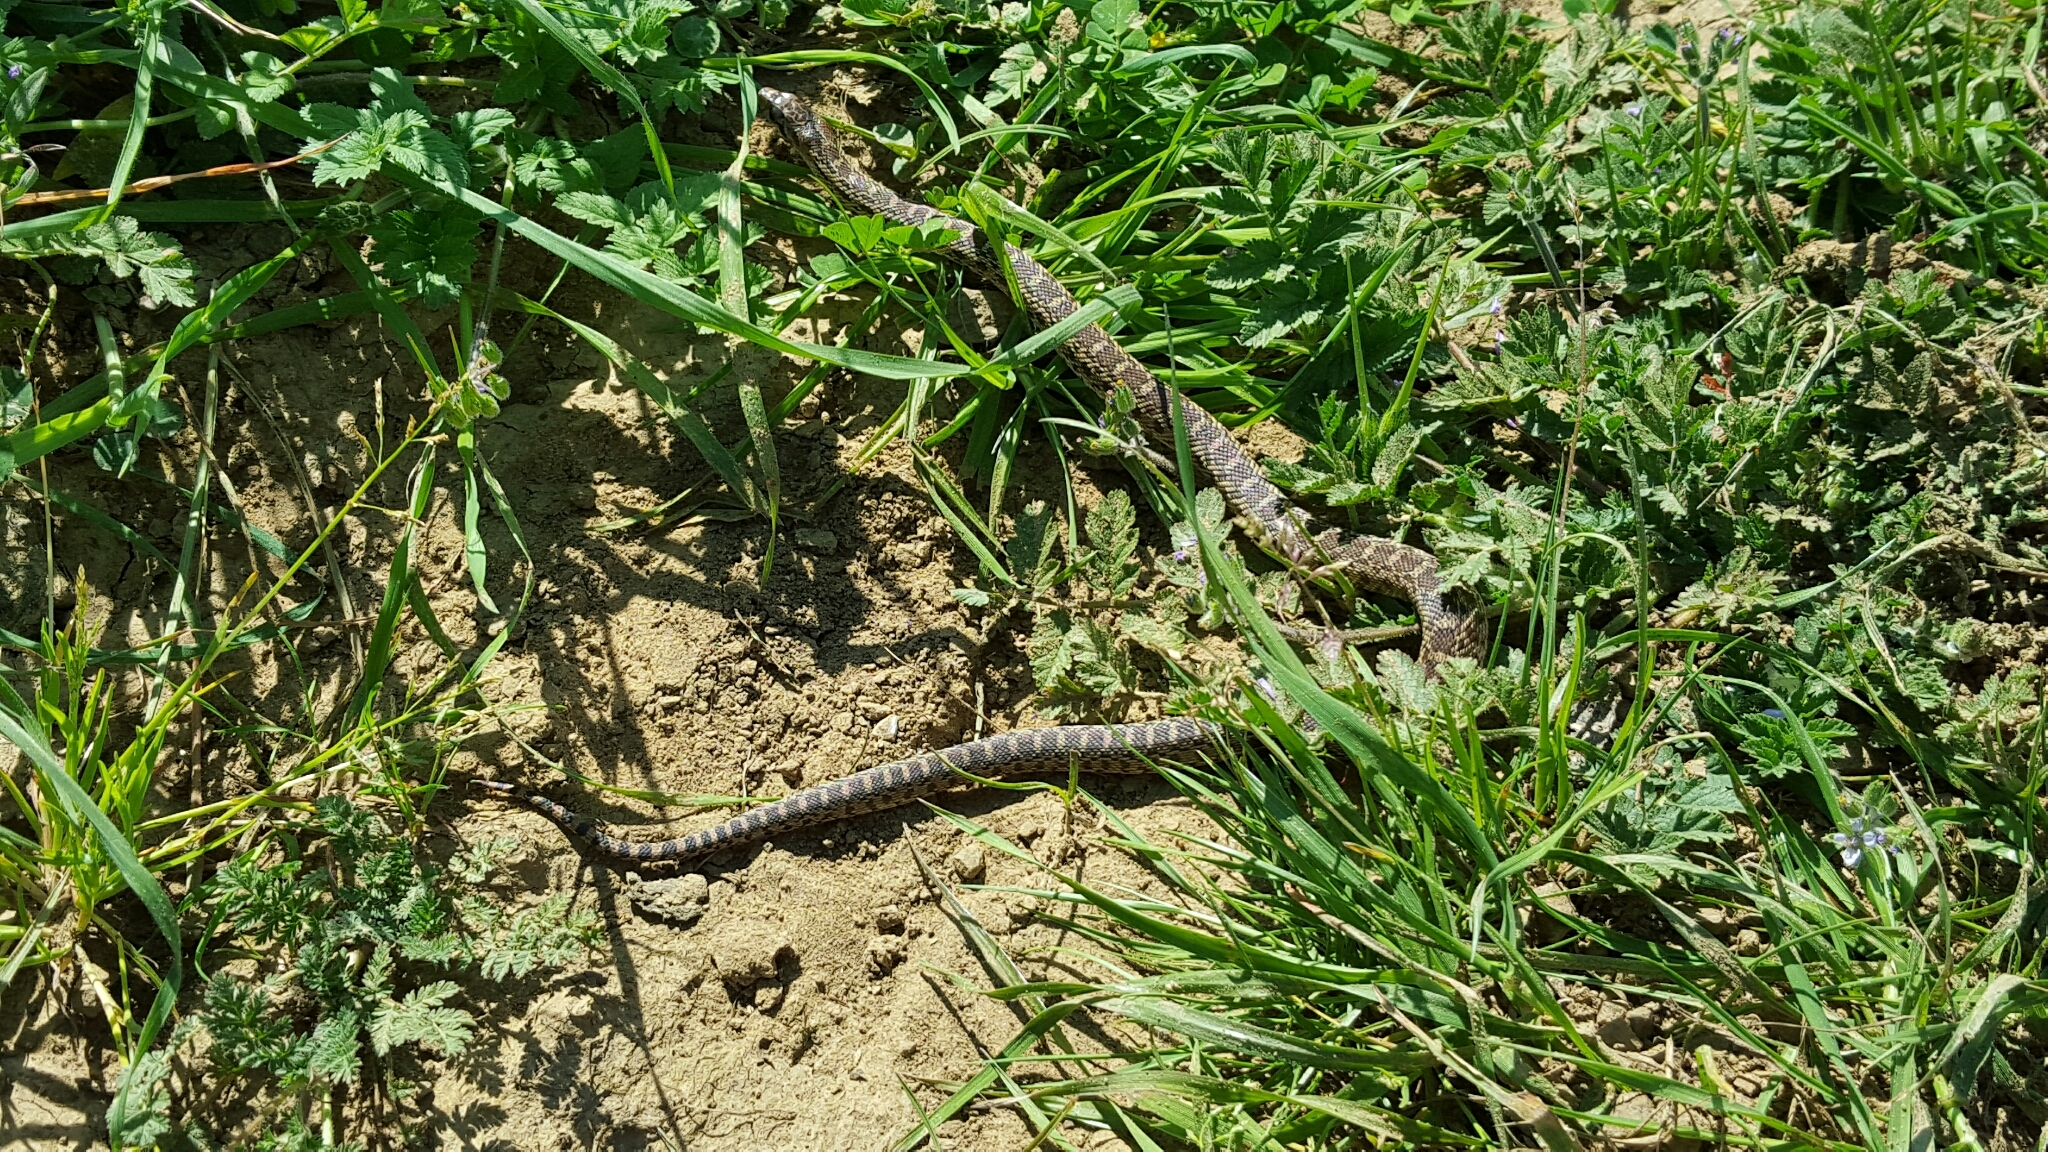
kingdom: Animalia
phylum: Chordata
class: Squamata
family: Colubridae
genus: Pituophis
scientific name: Pituophis catenifer
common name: Gopher snake
